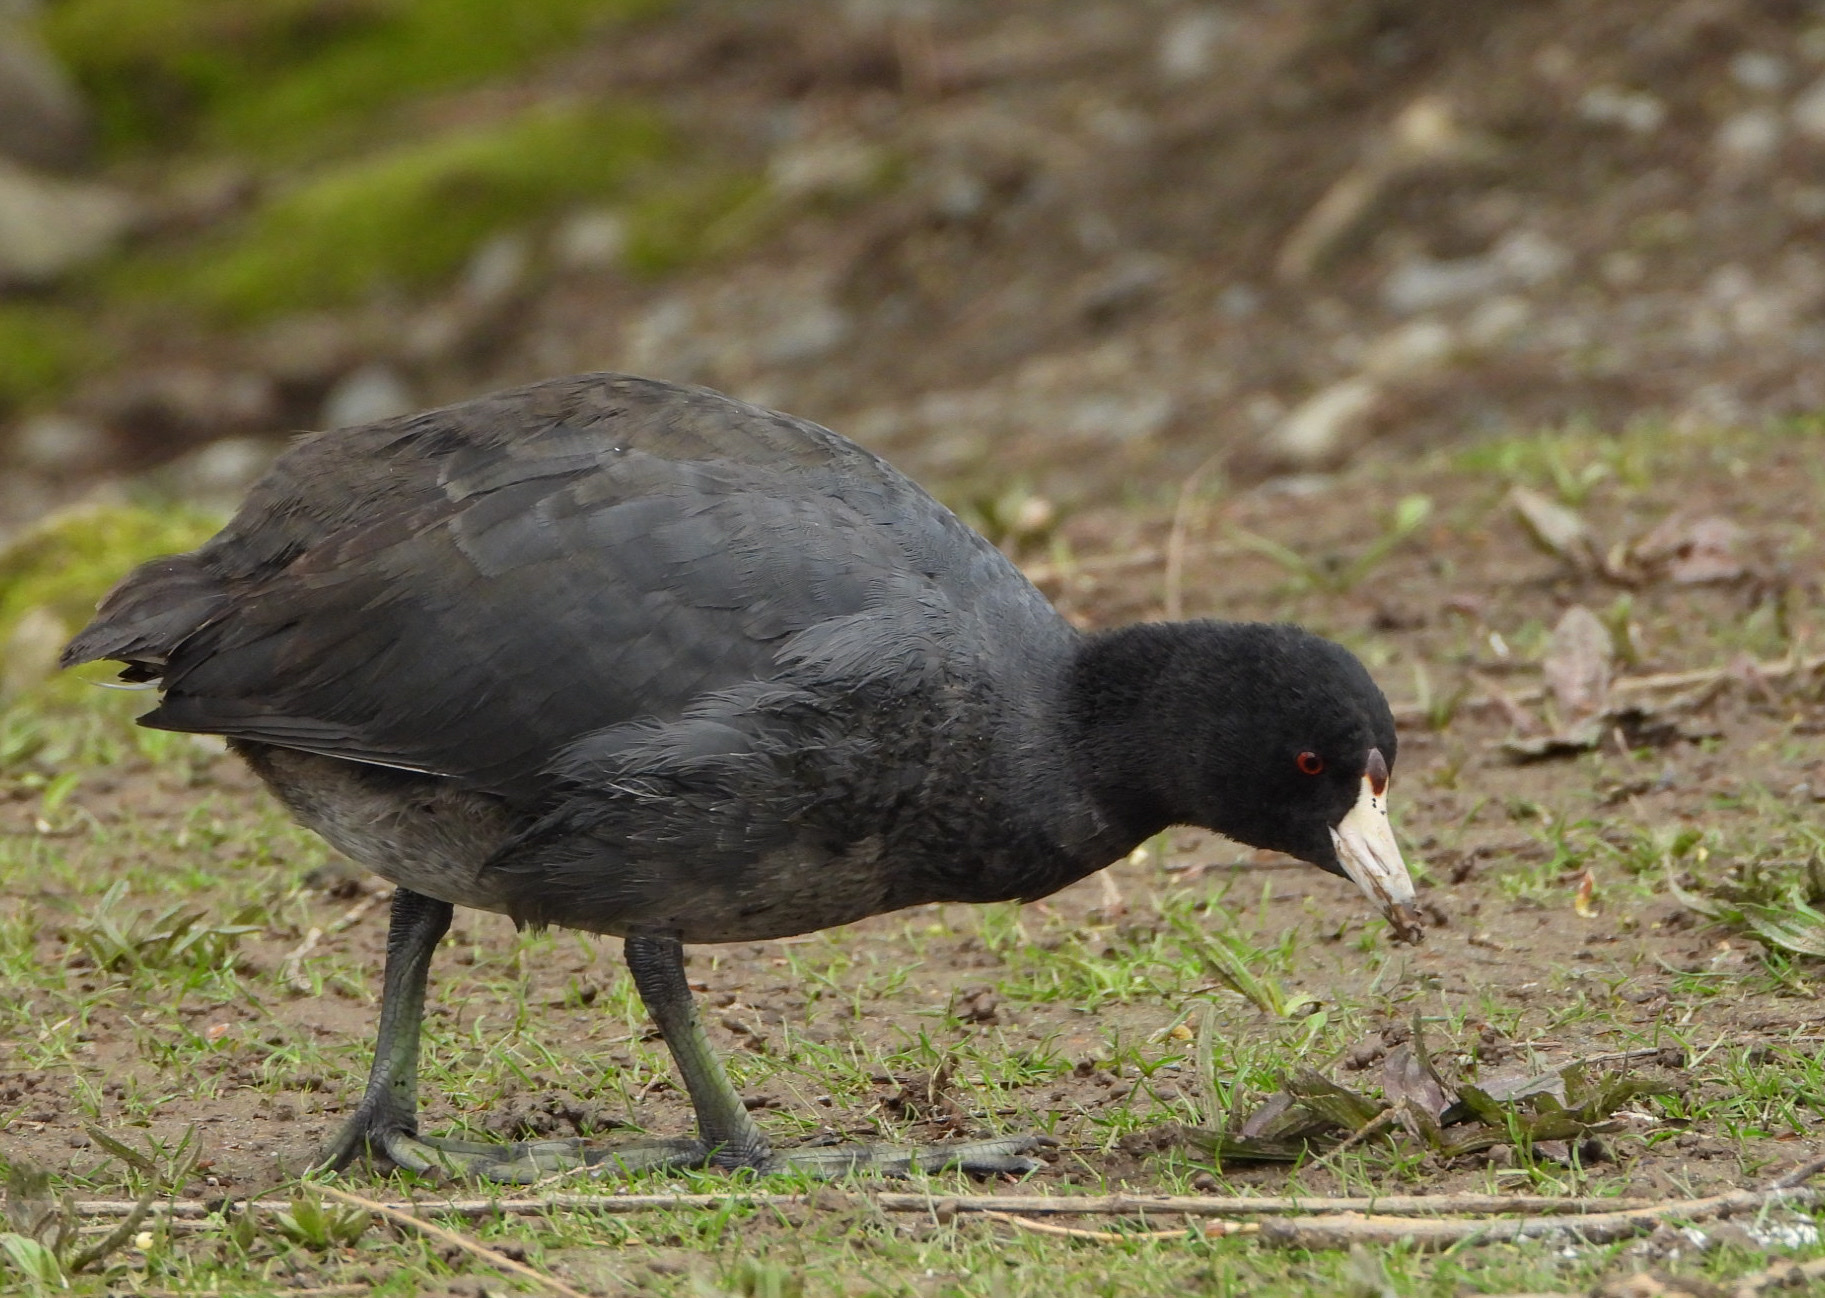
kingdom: Animalia
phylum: Chordata
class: Aves
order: Gruiformes
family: Rallidae
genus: Fulica
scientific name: Fulica americana
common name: American coot
